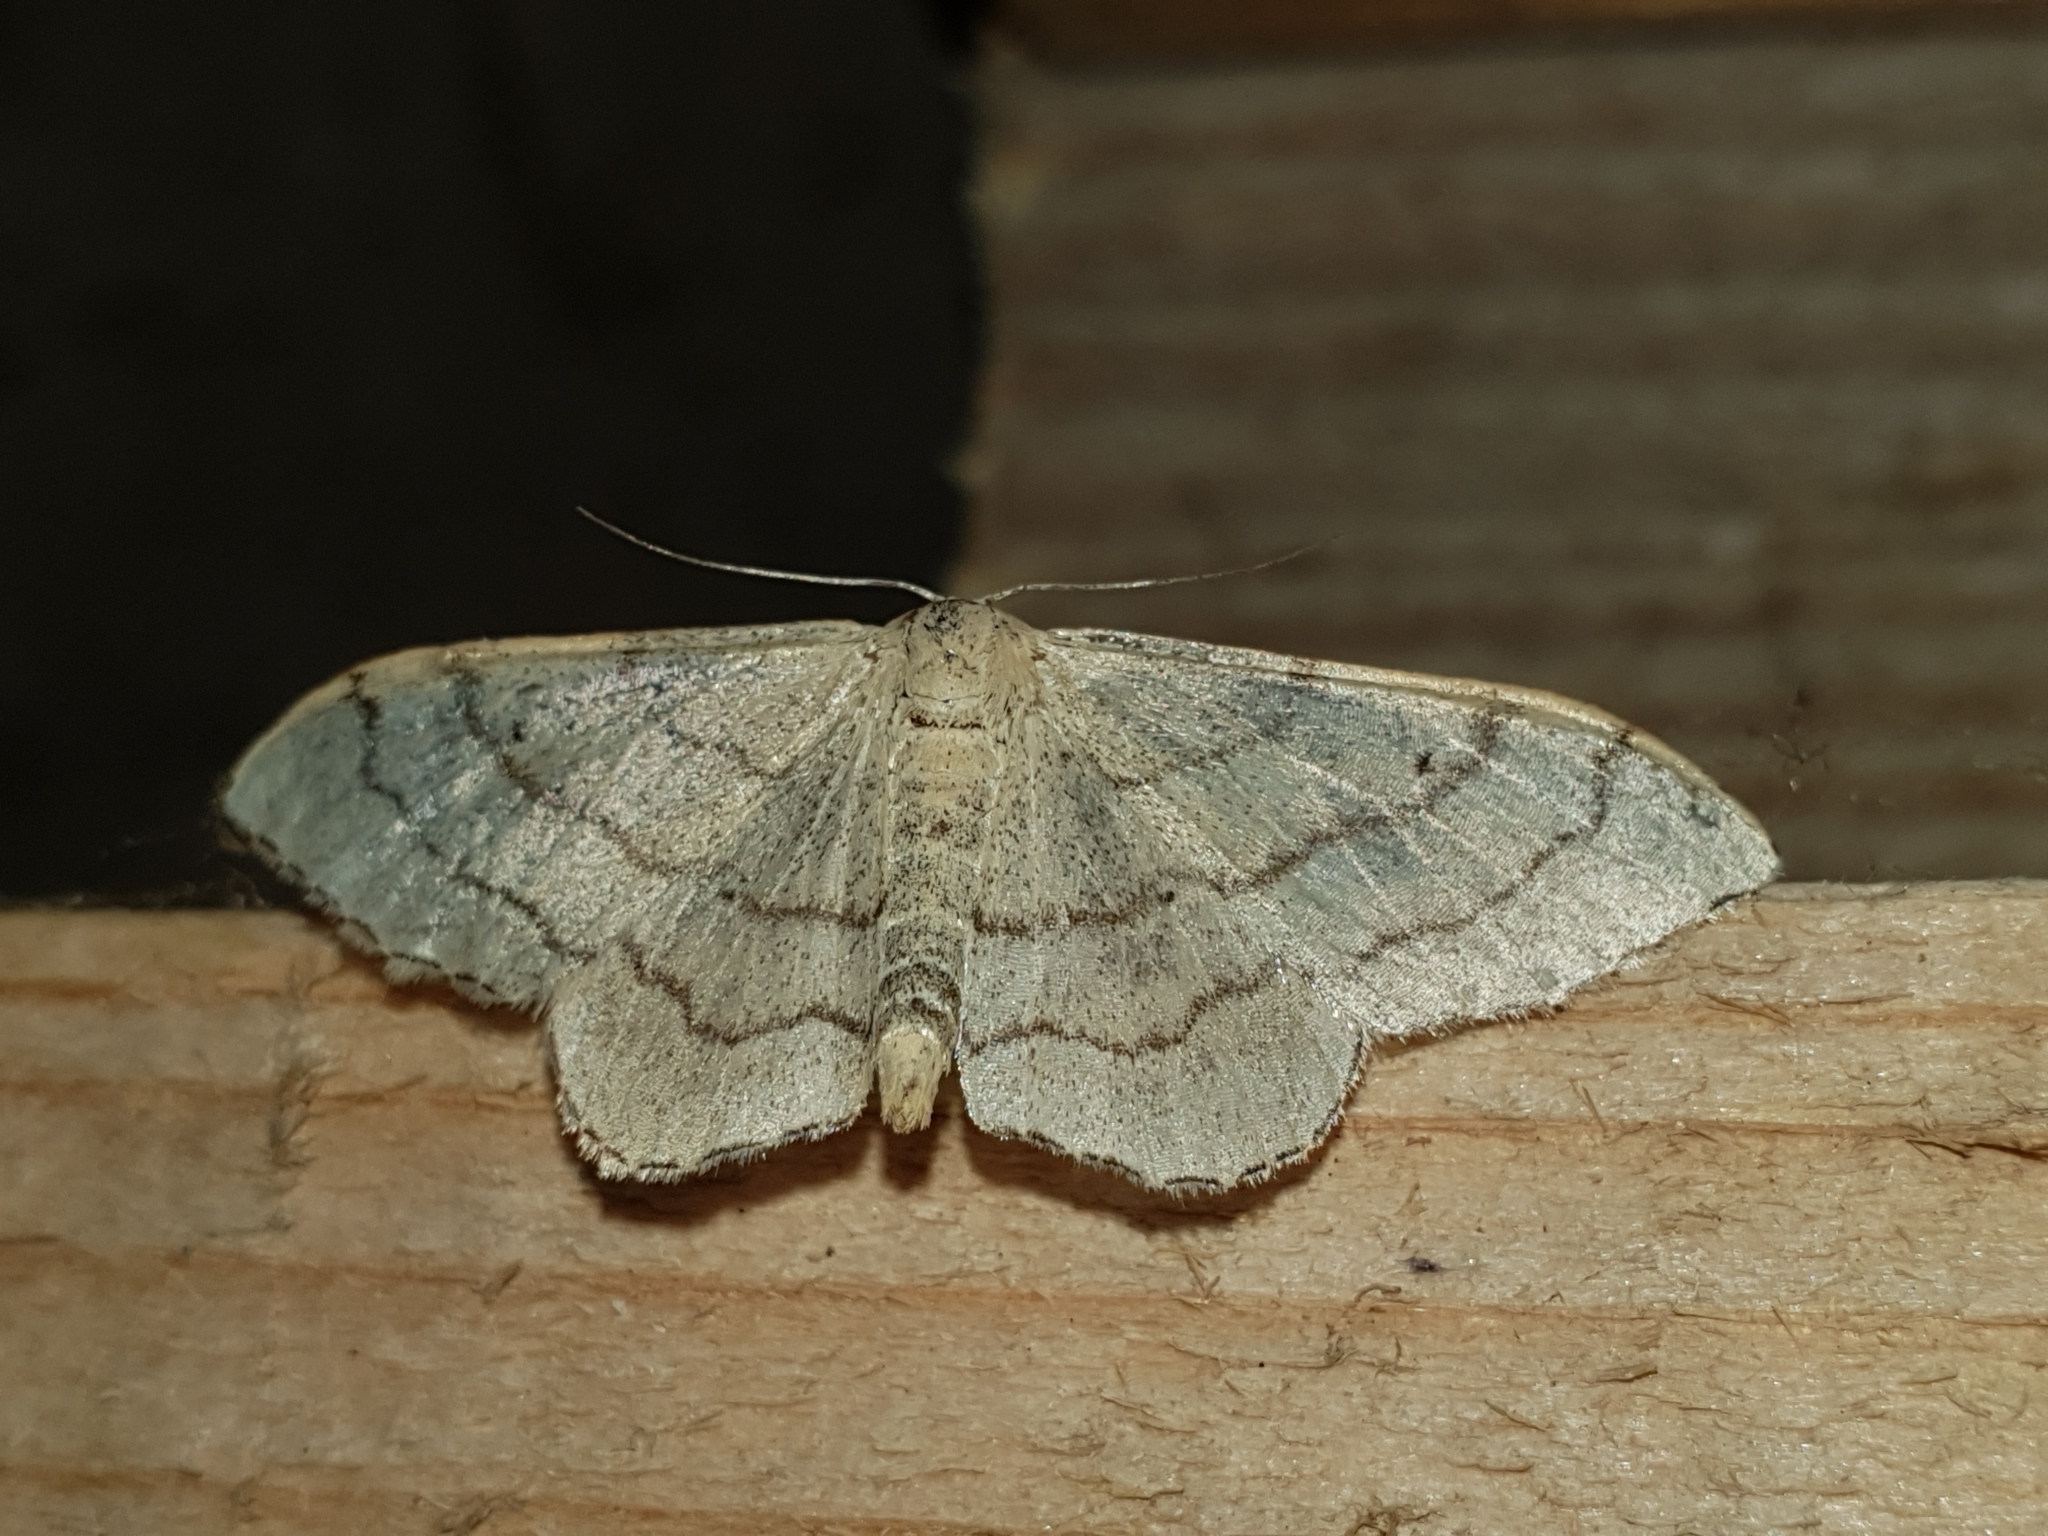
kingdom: Animalia
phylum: Arthropoda
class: Insecta
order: Lepidoptera
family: Geometridae
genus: Idaea
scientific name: Idaea aversata
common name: Riband wave
